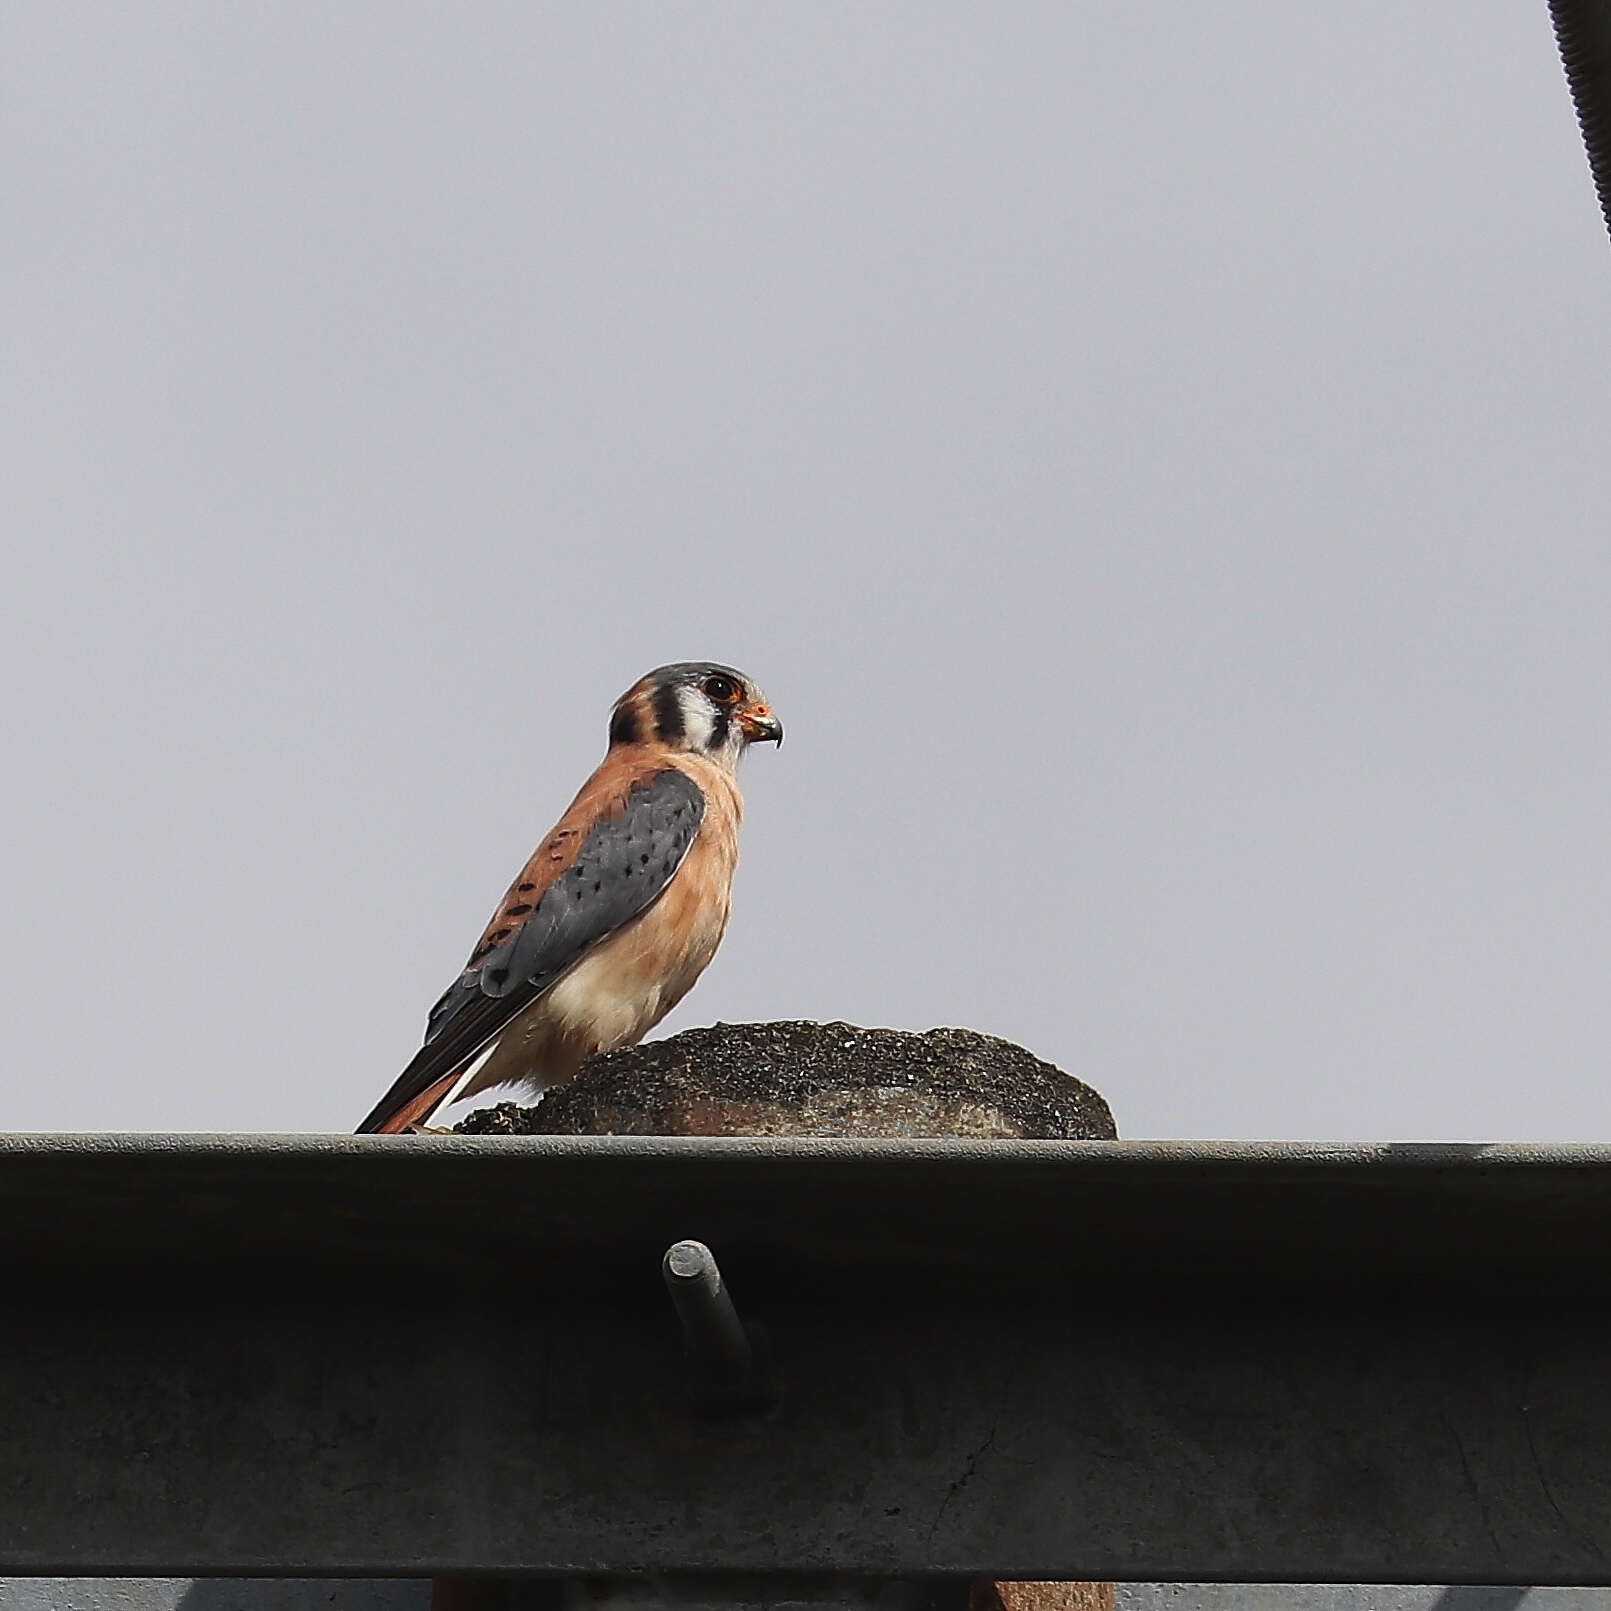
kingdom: Animalia
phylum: Chordata
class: Aves
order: Falconiformes
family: Falconidae
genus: Falco
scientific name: Falco sparverius
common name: American kestrel
